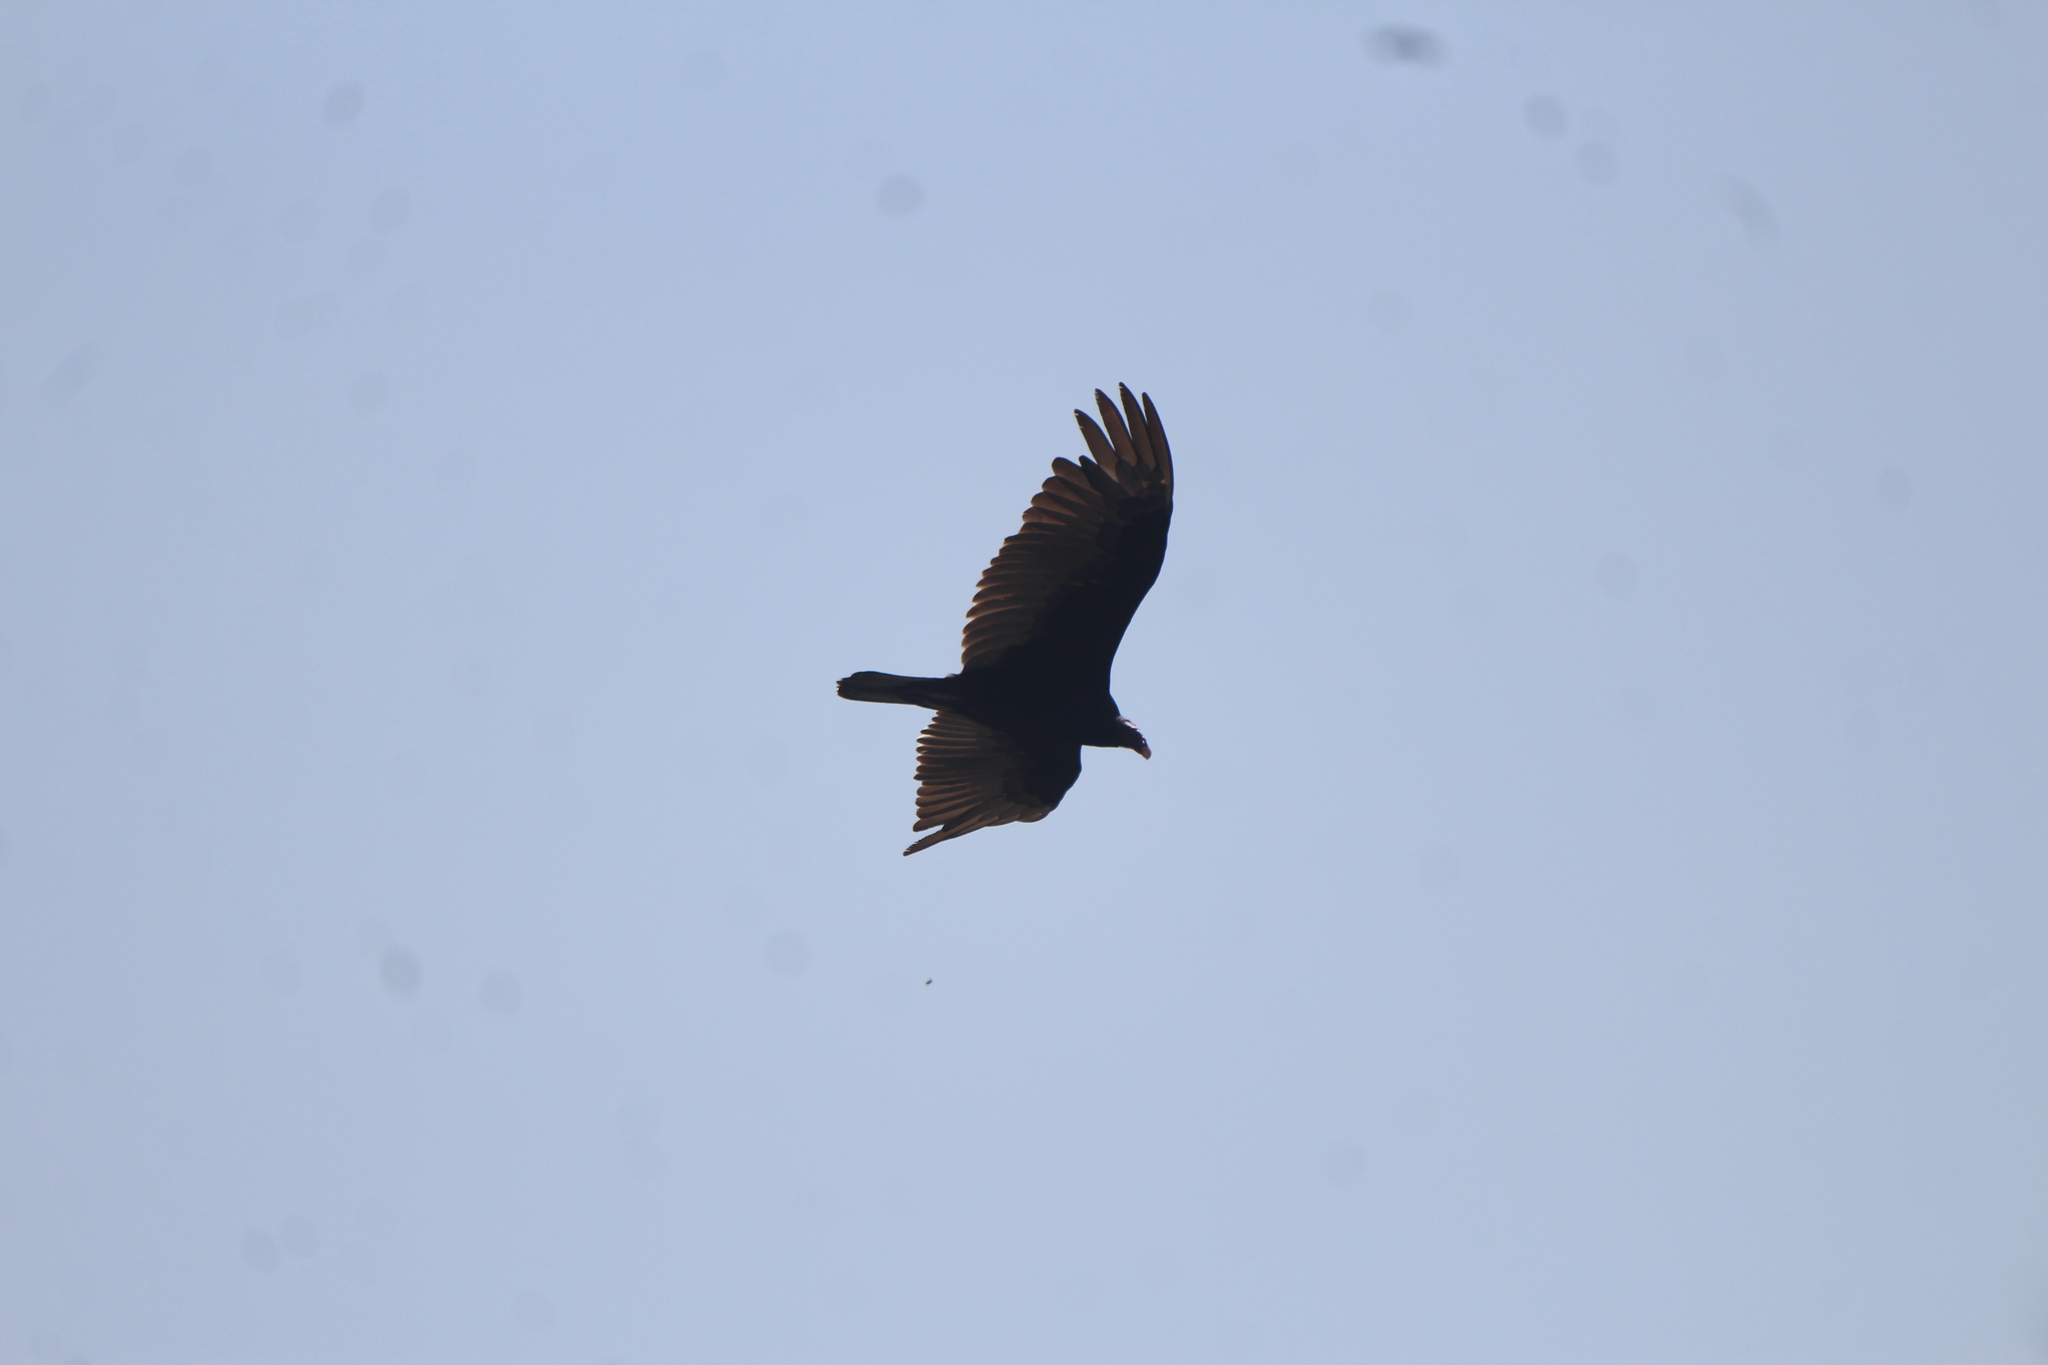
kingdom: Animalia
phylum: Chordata
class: Aves
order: Accipitriformes
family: Cathartidae
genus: Cathartes
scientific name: Cathartes aura
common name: Turkey vulture
